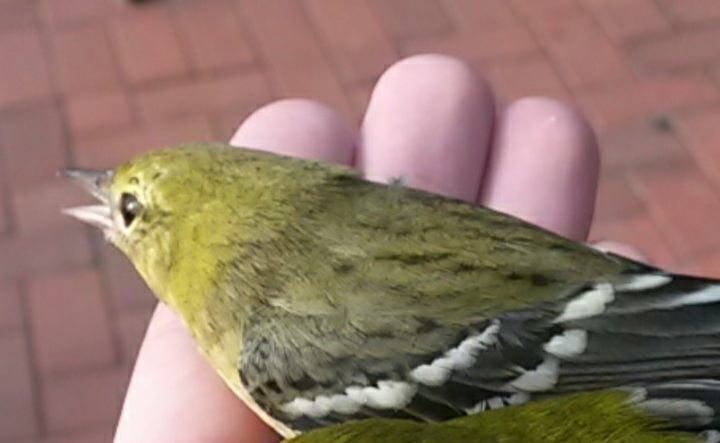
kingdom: Animalia
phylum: Chordata
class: Aves
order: Passeriformes
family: Parulidae
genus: Setophaga
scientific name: Setophaga striata
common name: Blackpoll warbler
